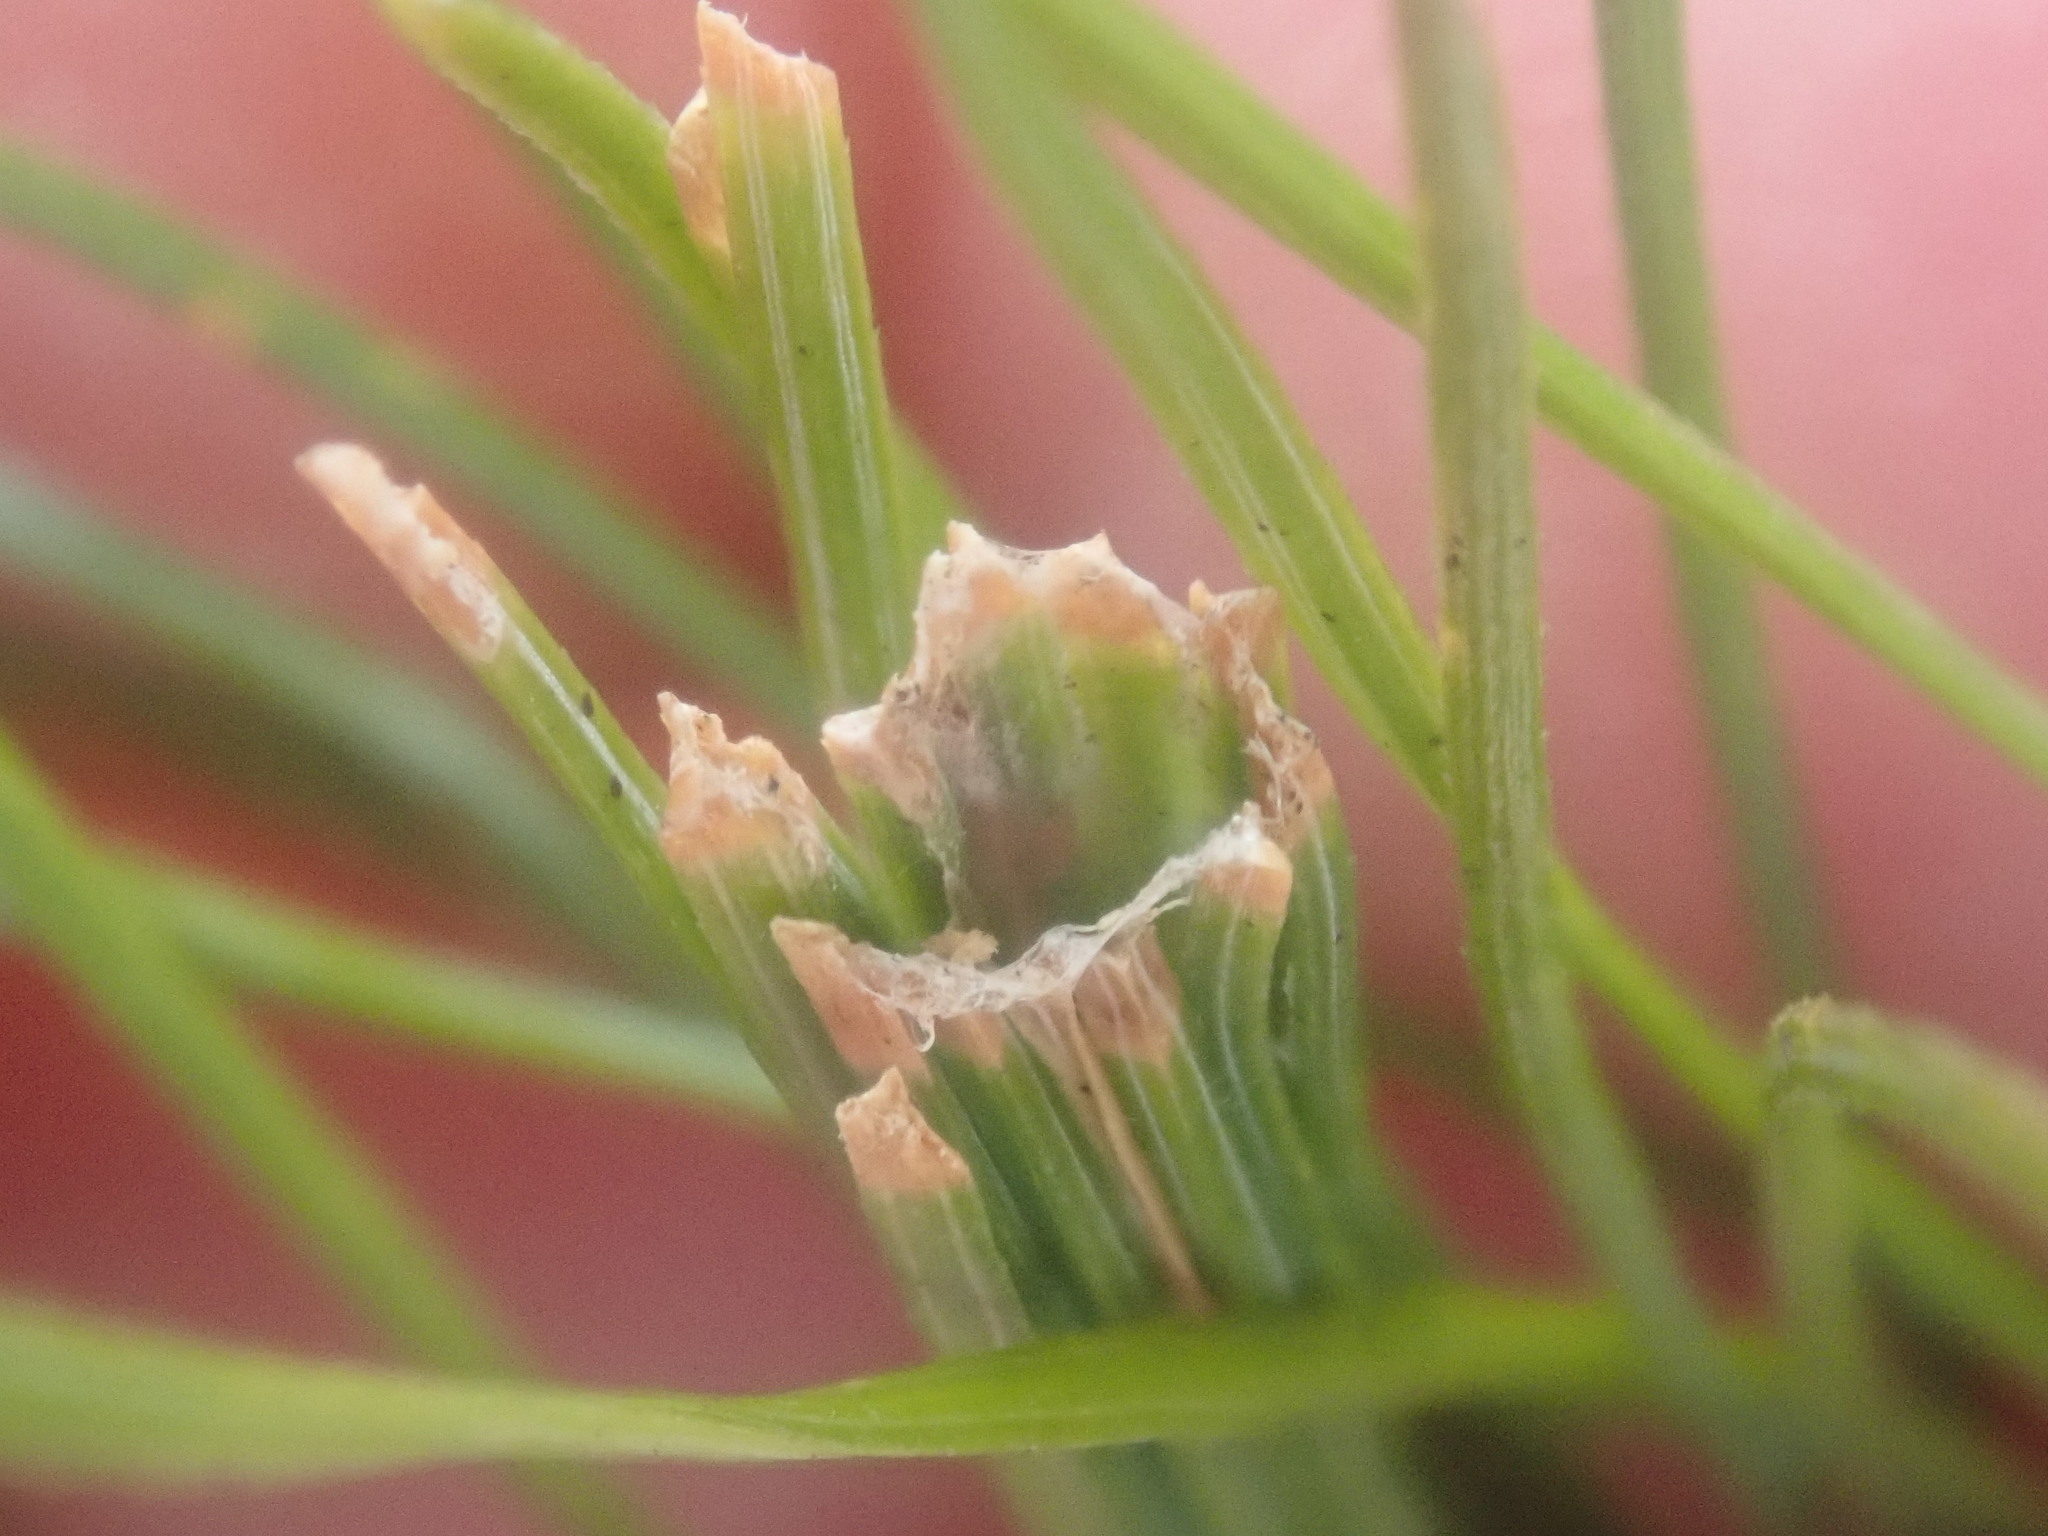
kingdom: Animalia
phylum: Arthropoda
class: Insecta
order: Lepidoptera
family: Tortricidae
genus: Argyrotaenia
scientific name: Argyrotaenia pinatubana
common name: Pine tube moth
